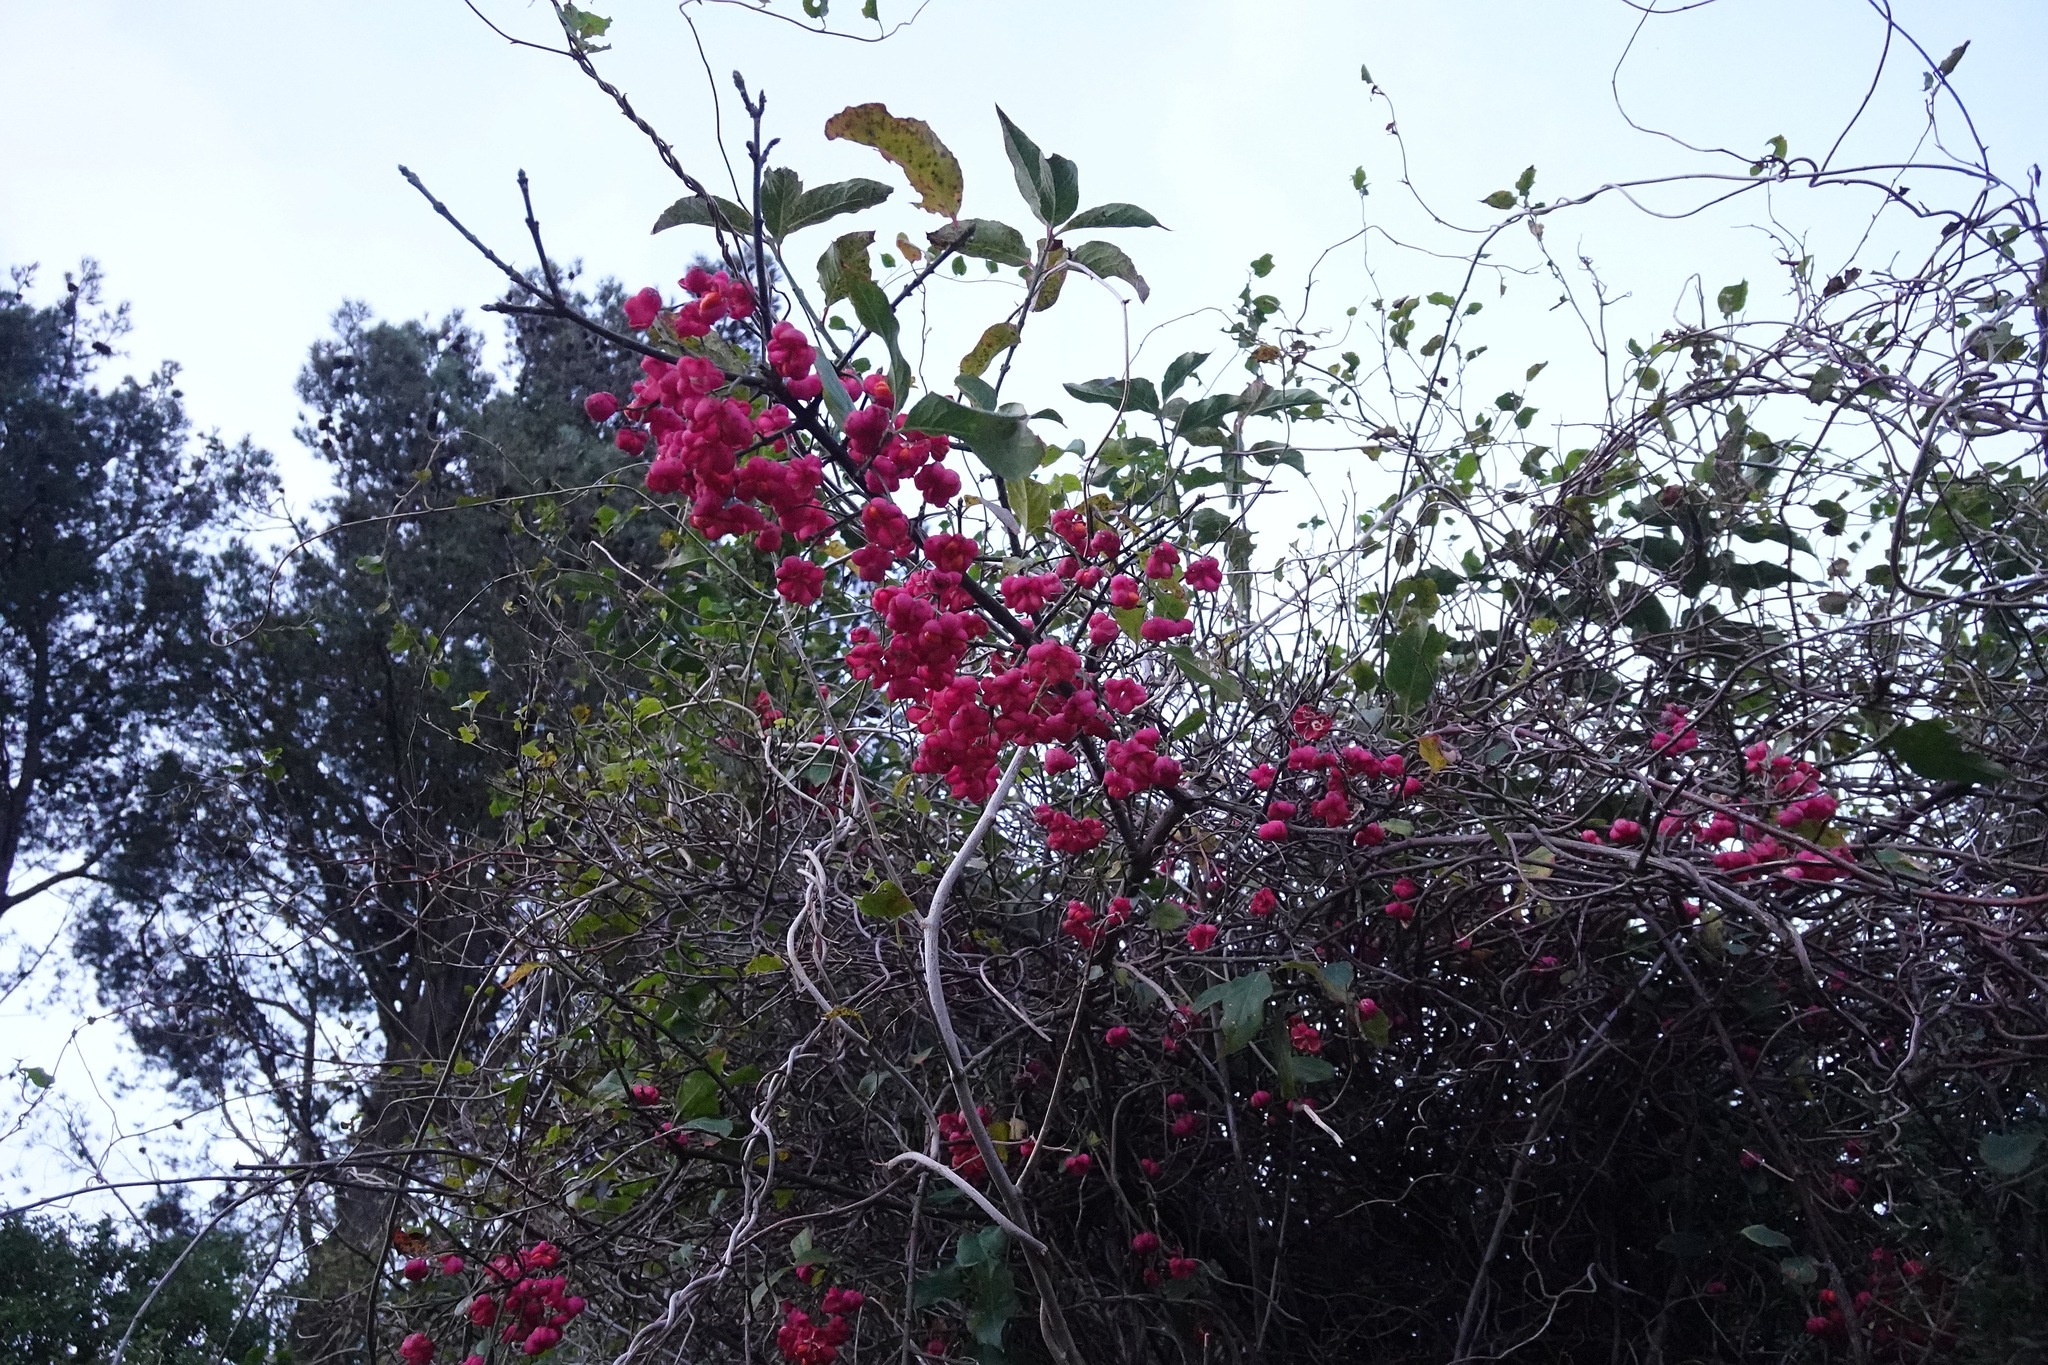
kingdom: Plantae
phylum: Tracheophyta
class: Magnoliopsida
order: Celastrales
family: Celastraceae
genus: Euonymus
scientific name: Euonymus europaeus
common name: Spindle
